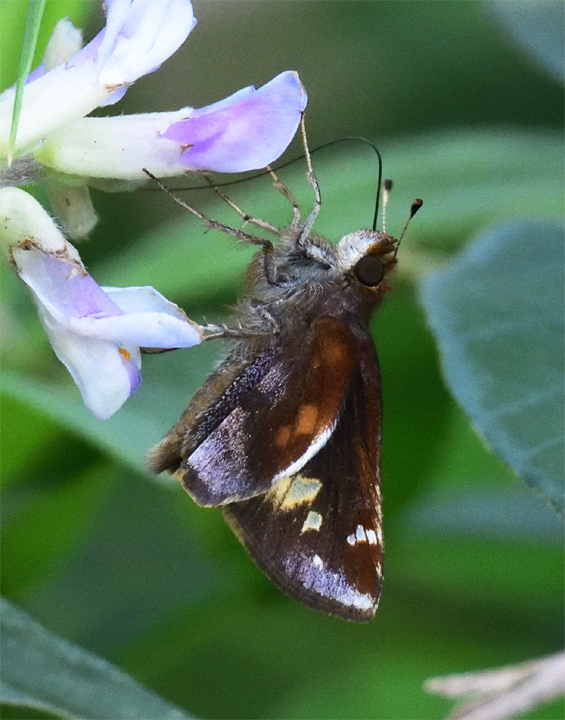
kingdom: Animalia
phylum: Arthropoda
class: Insecta
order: Lepidoptera
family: Hesperiidae
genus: Lon
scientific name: Lon zabulon
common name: Zabulon skipper
